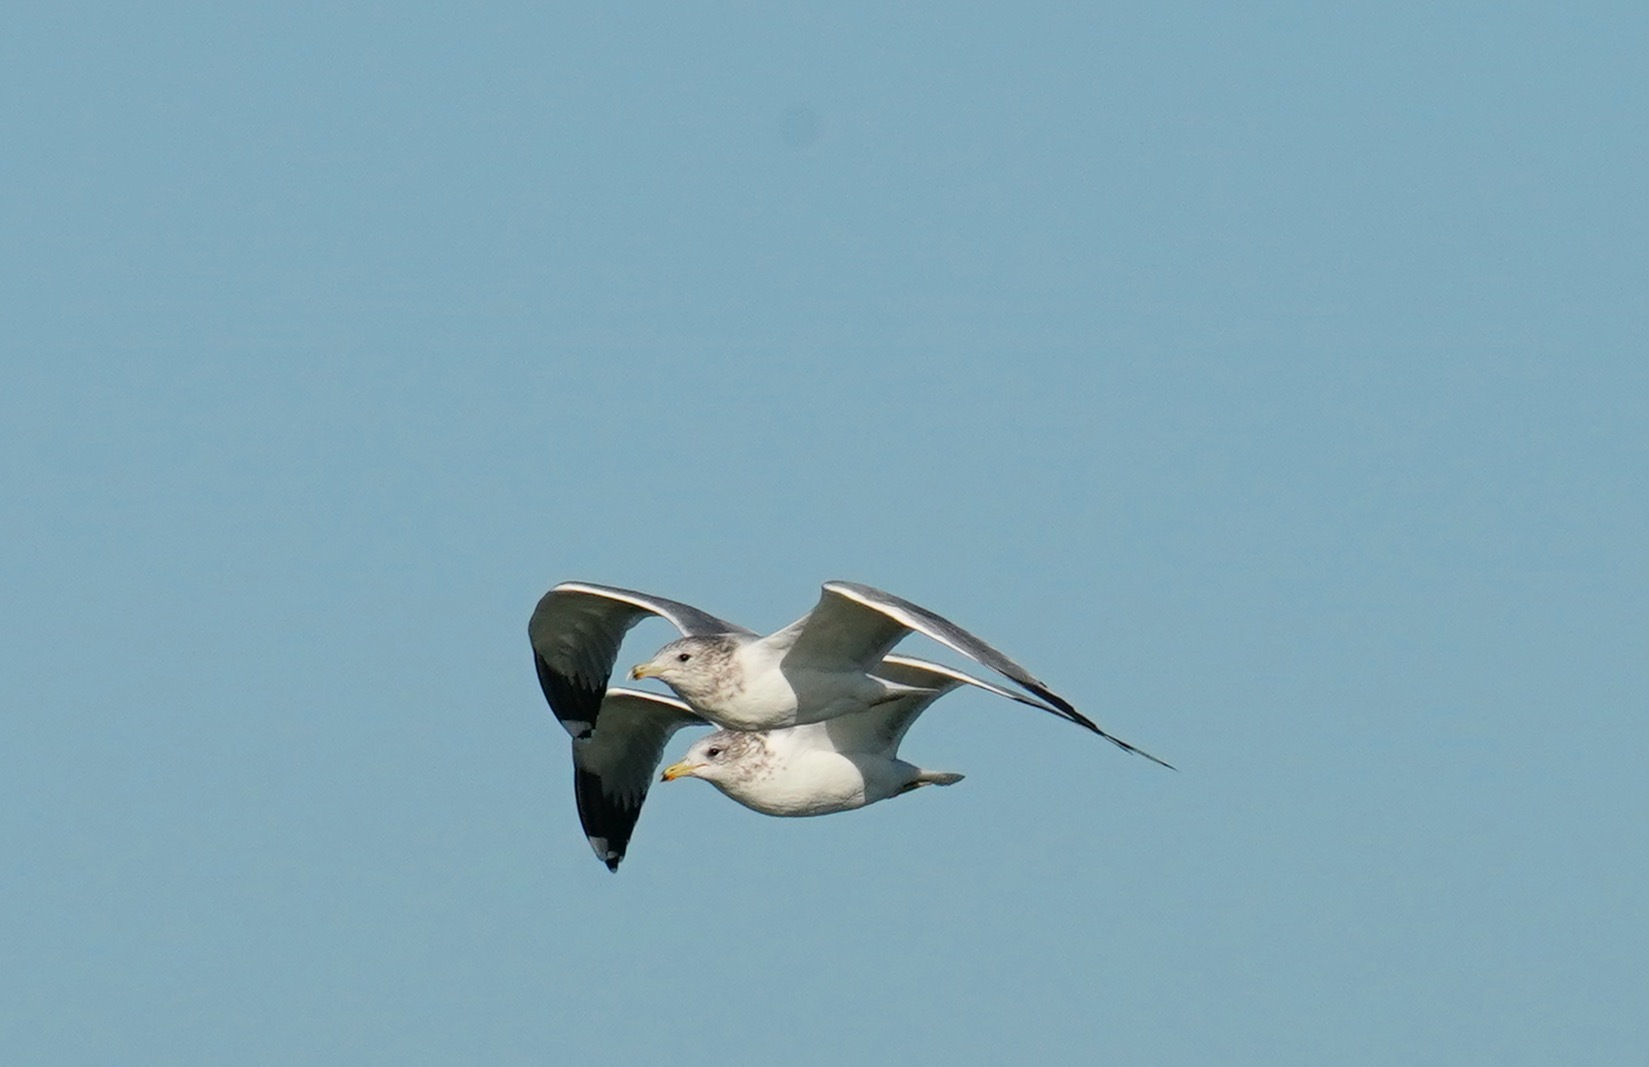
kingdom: Animalia
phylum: Chordata
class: Aves
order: Charadriiformes
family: Laridae
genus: Larus
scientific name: Larus californicus
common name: California gull
